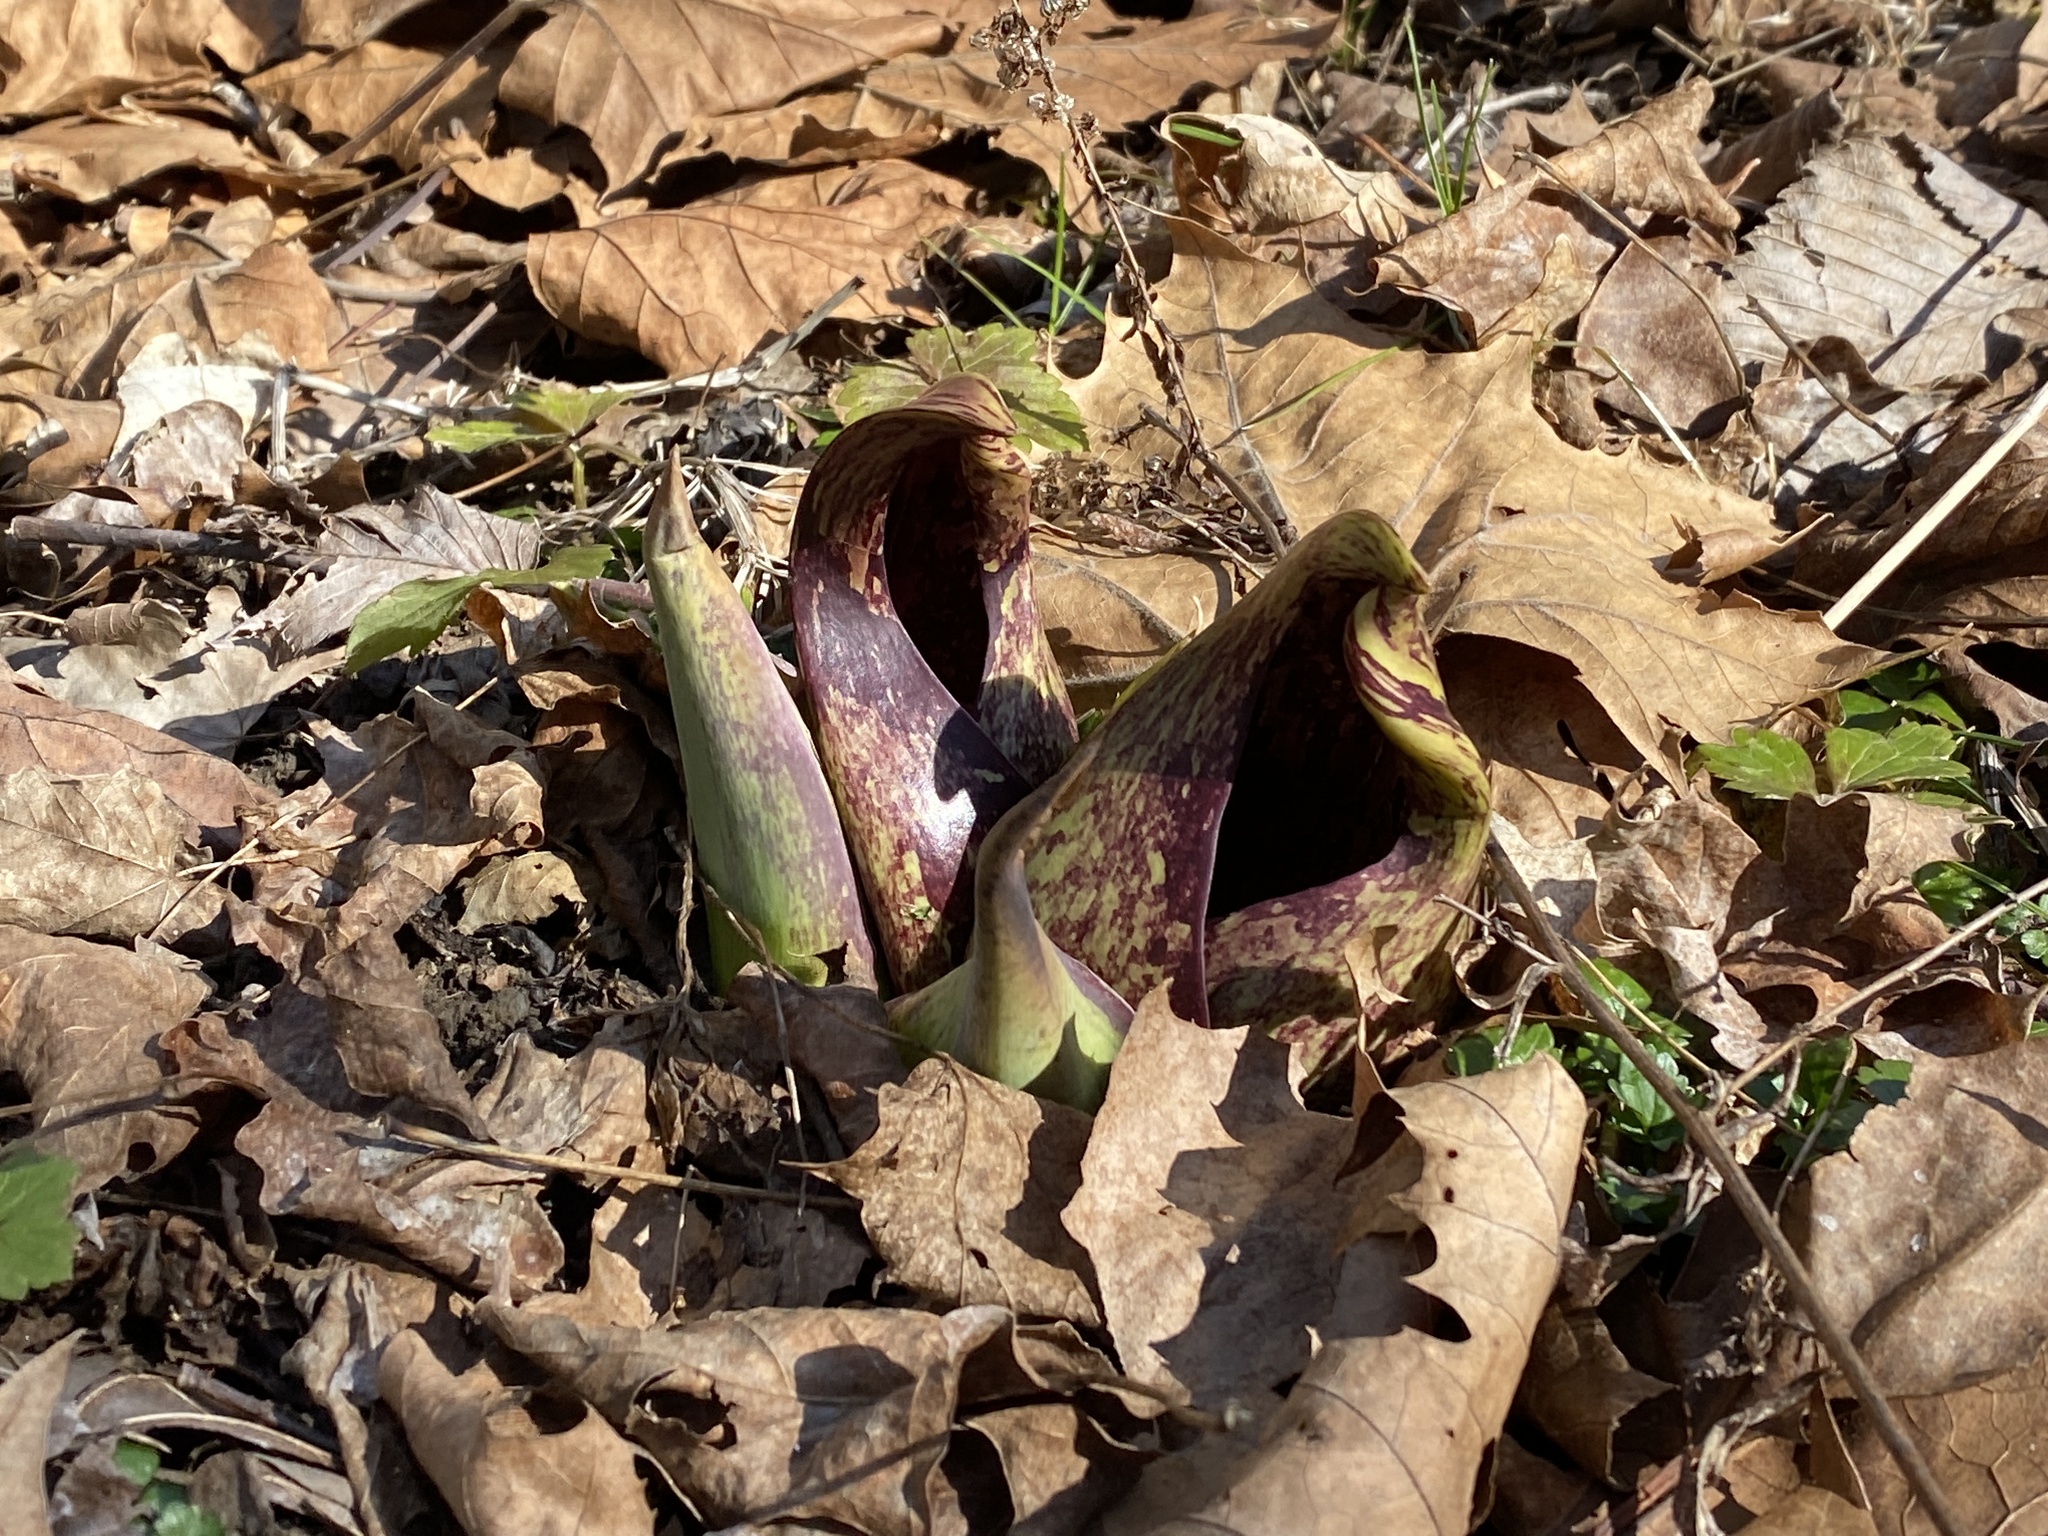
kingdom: Plantae
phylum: Tracheophyta
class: Liliopsida
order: Alismatales
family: Araceae
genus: Symplocarpus
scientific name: Symplocarpus foetidus
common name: Eastern skunk cabbage
